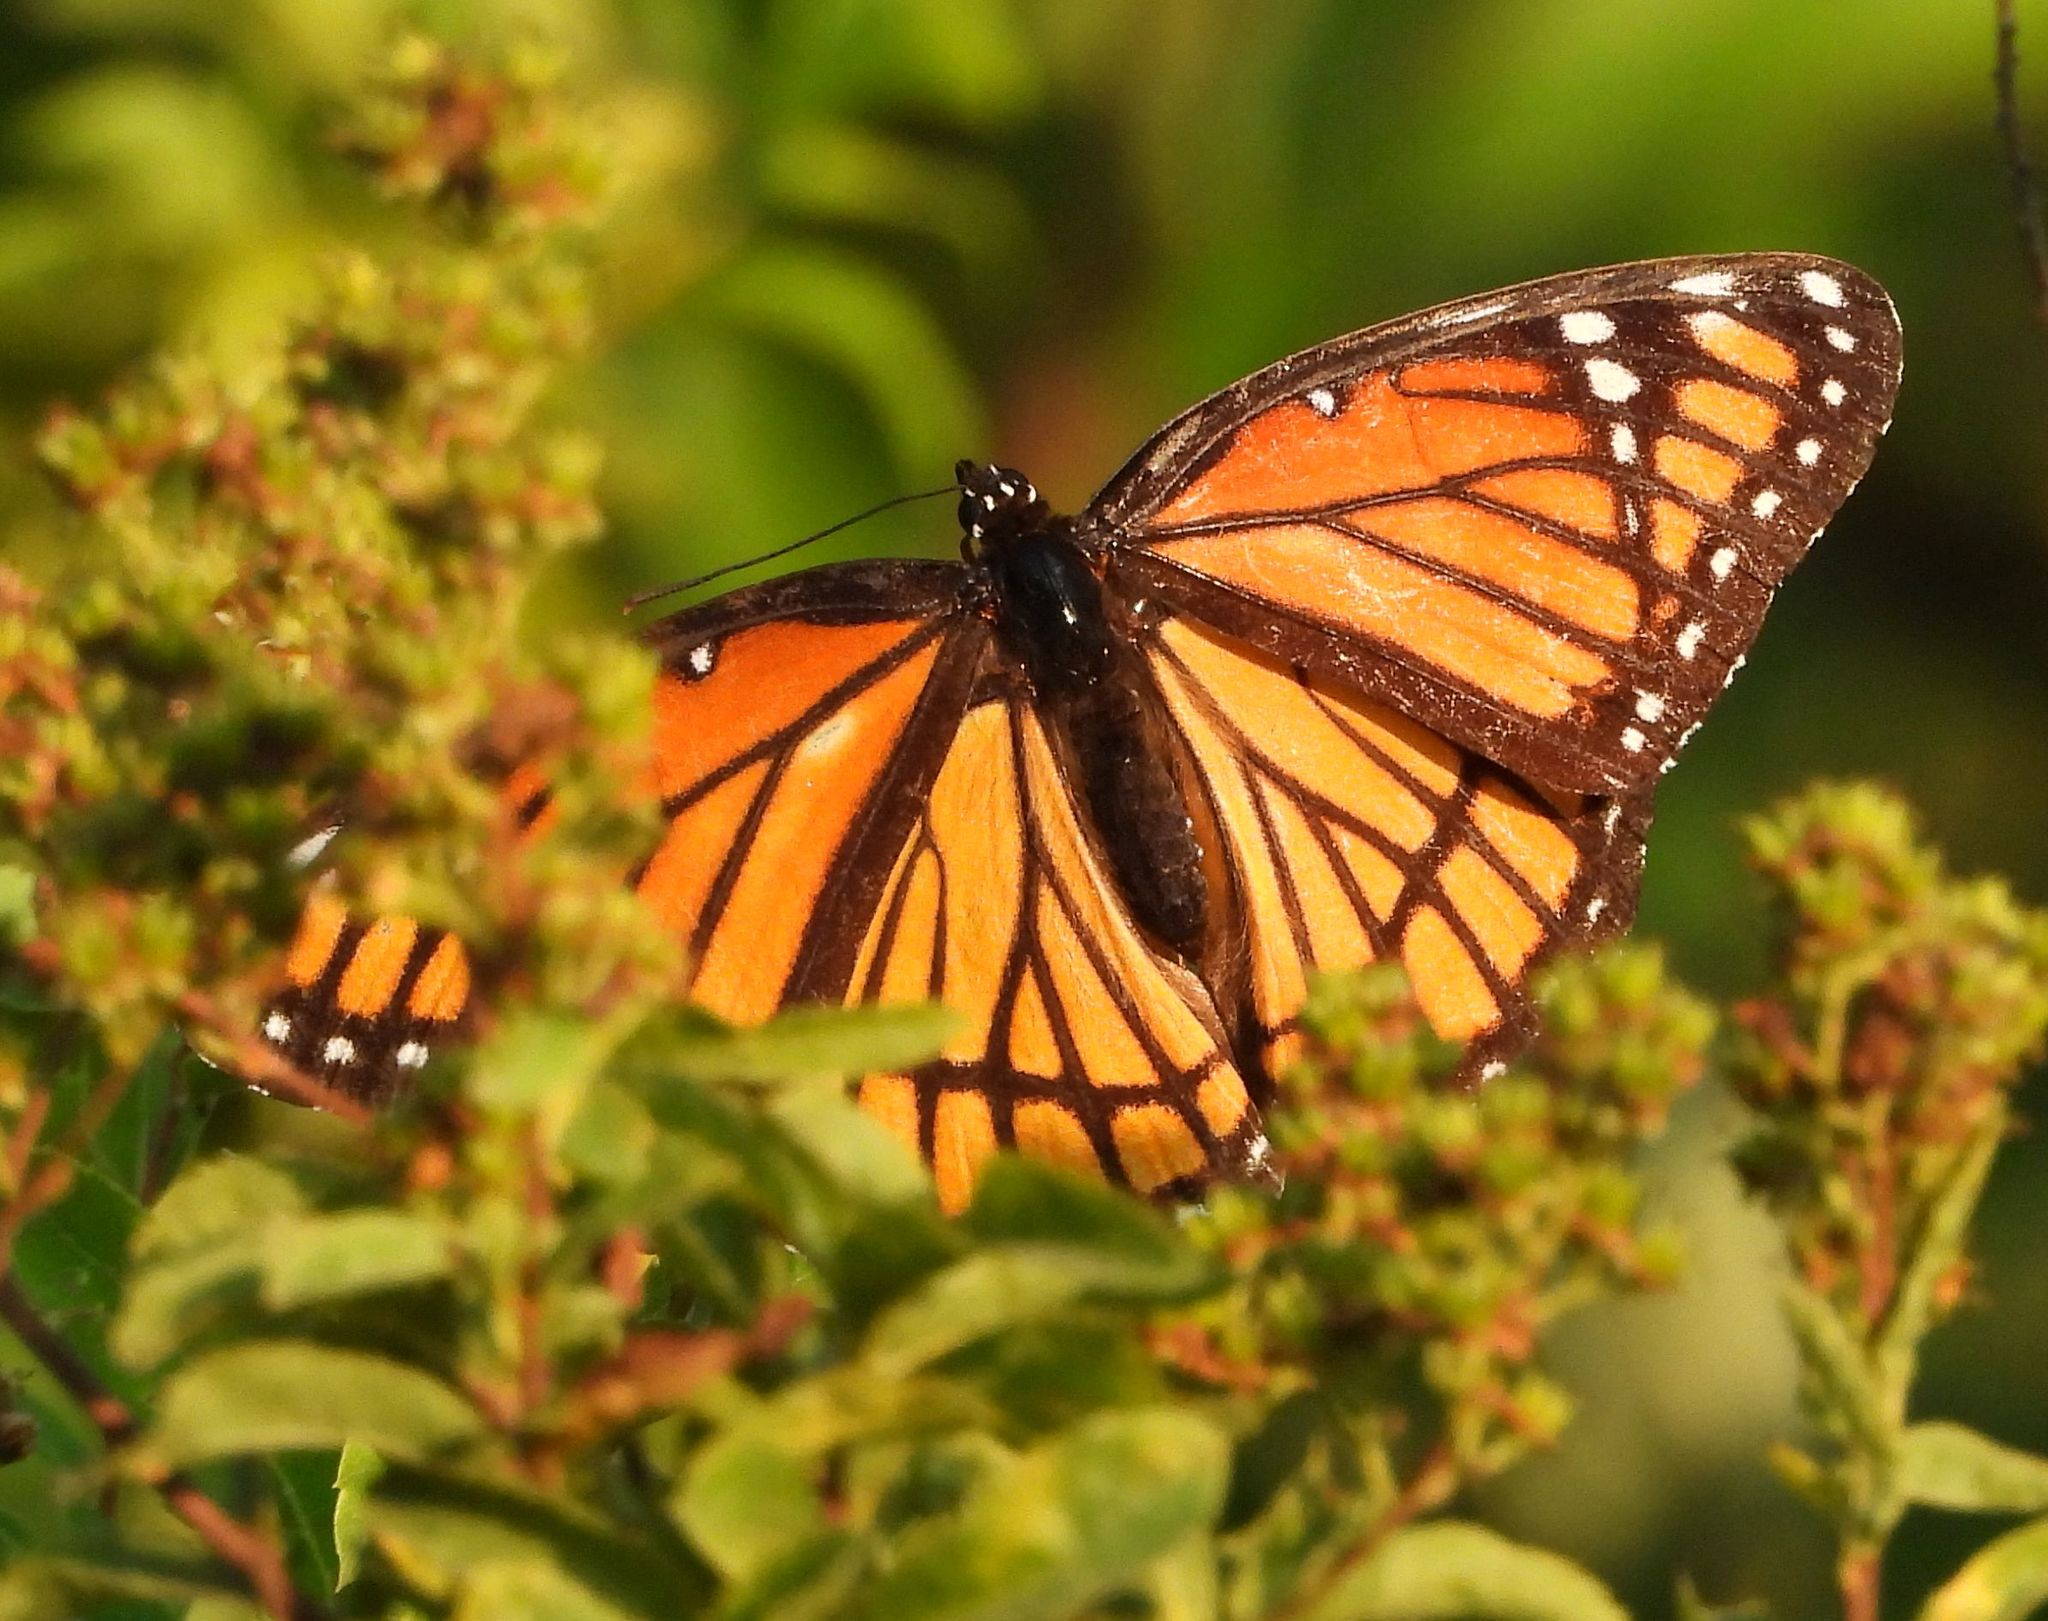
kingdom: Animalia
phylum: Arthropoda
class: Insecta
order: Lepidoptera
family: Nymphalidae
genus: Limenitis
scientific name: Limenitis archippus
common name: Viceroy
